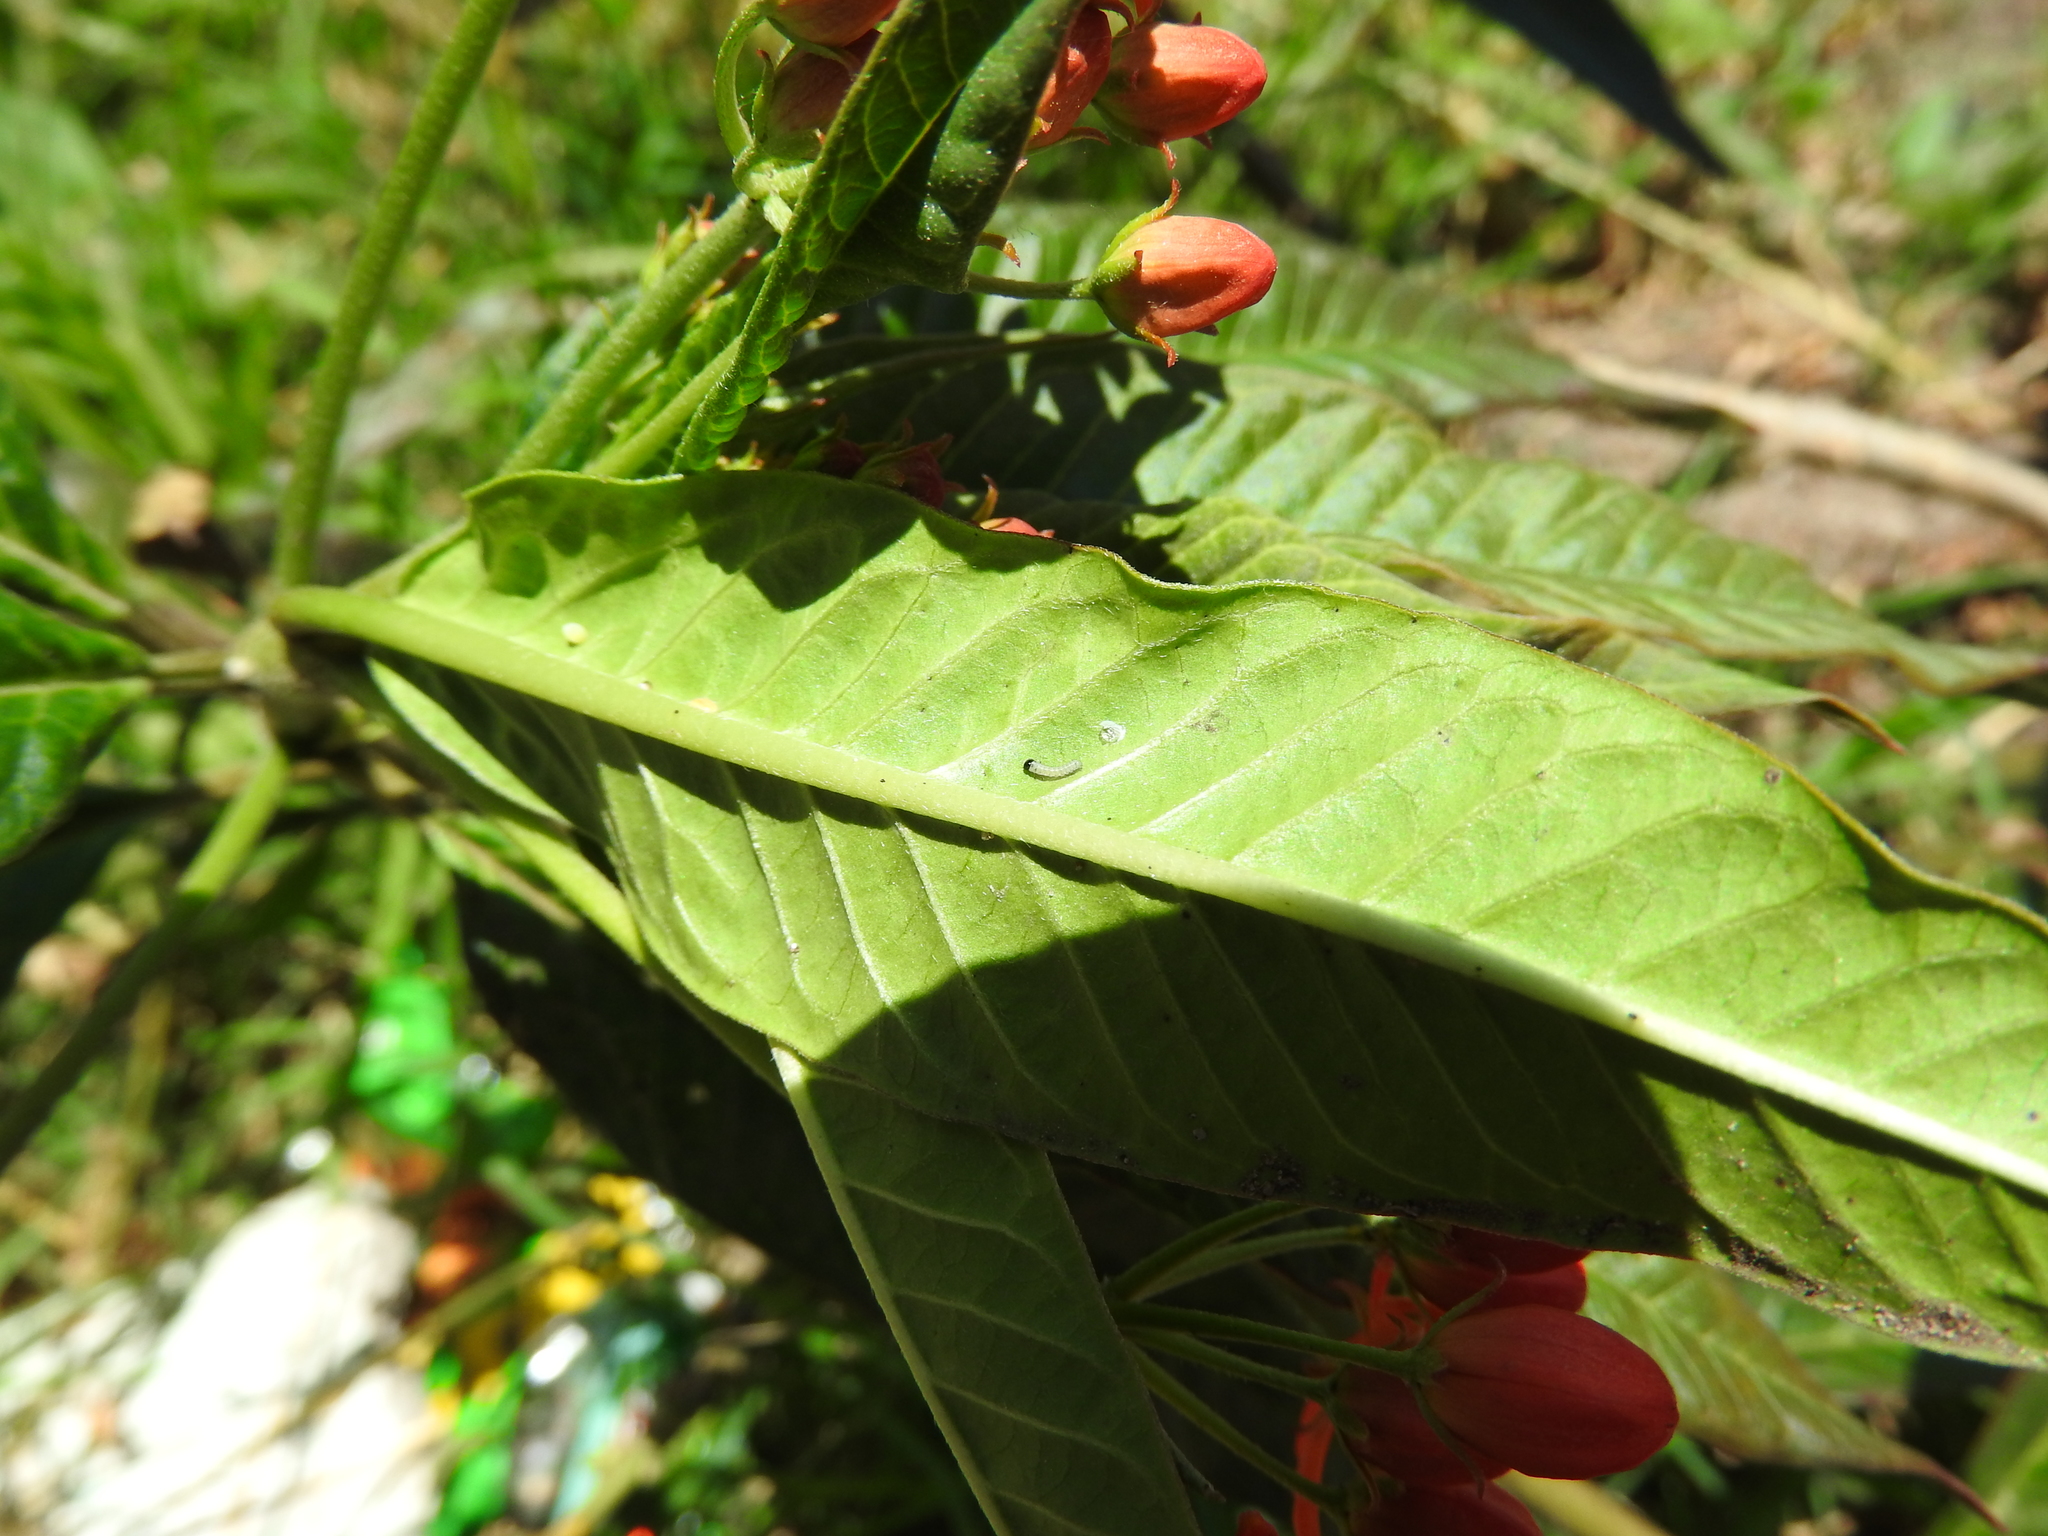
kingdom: Animalia
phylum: Arthropoda
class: Insecta
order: Lepidoptera
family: Nymphalidae
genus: Danaus
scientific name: Danaus plexippus
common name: Monarch
